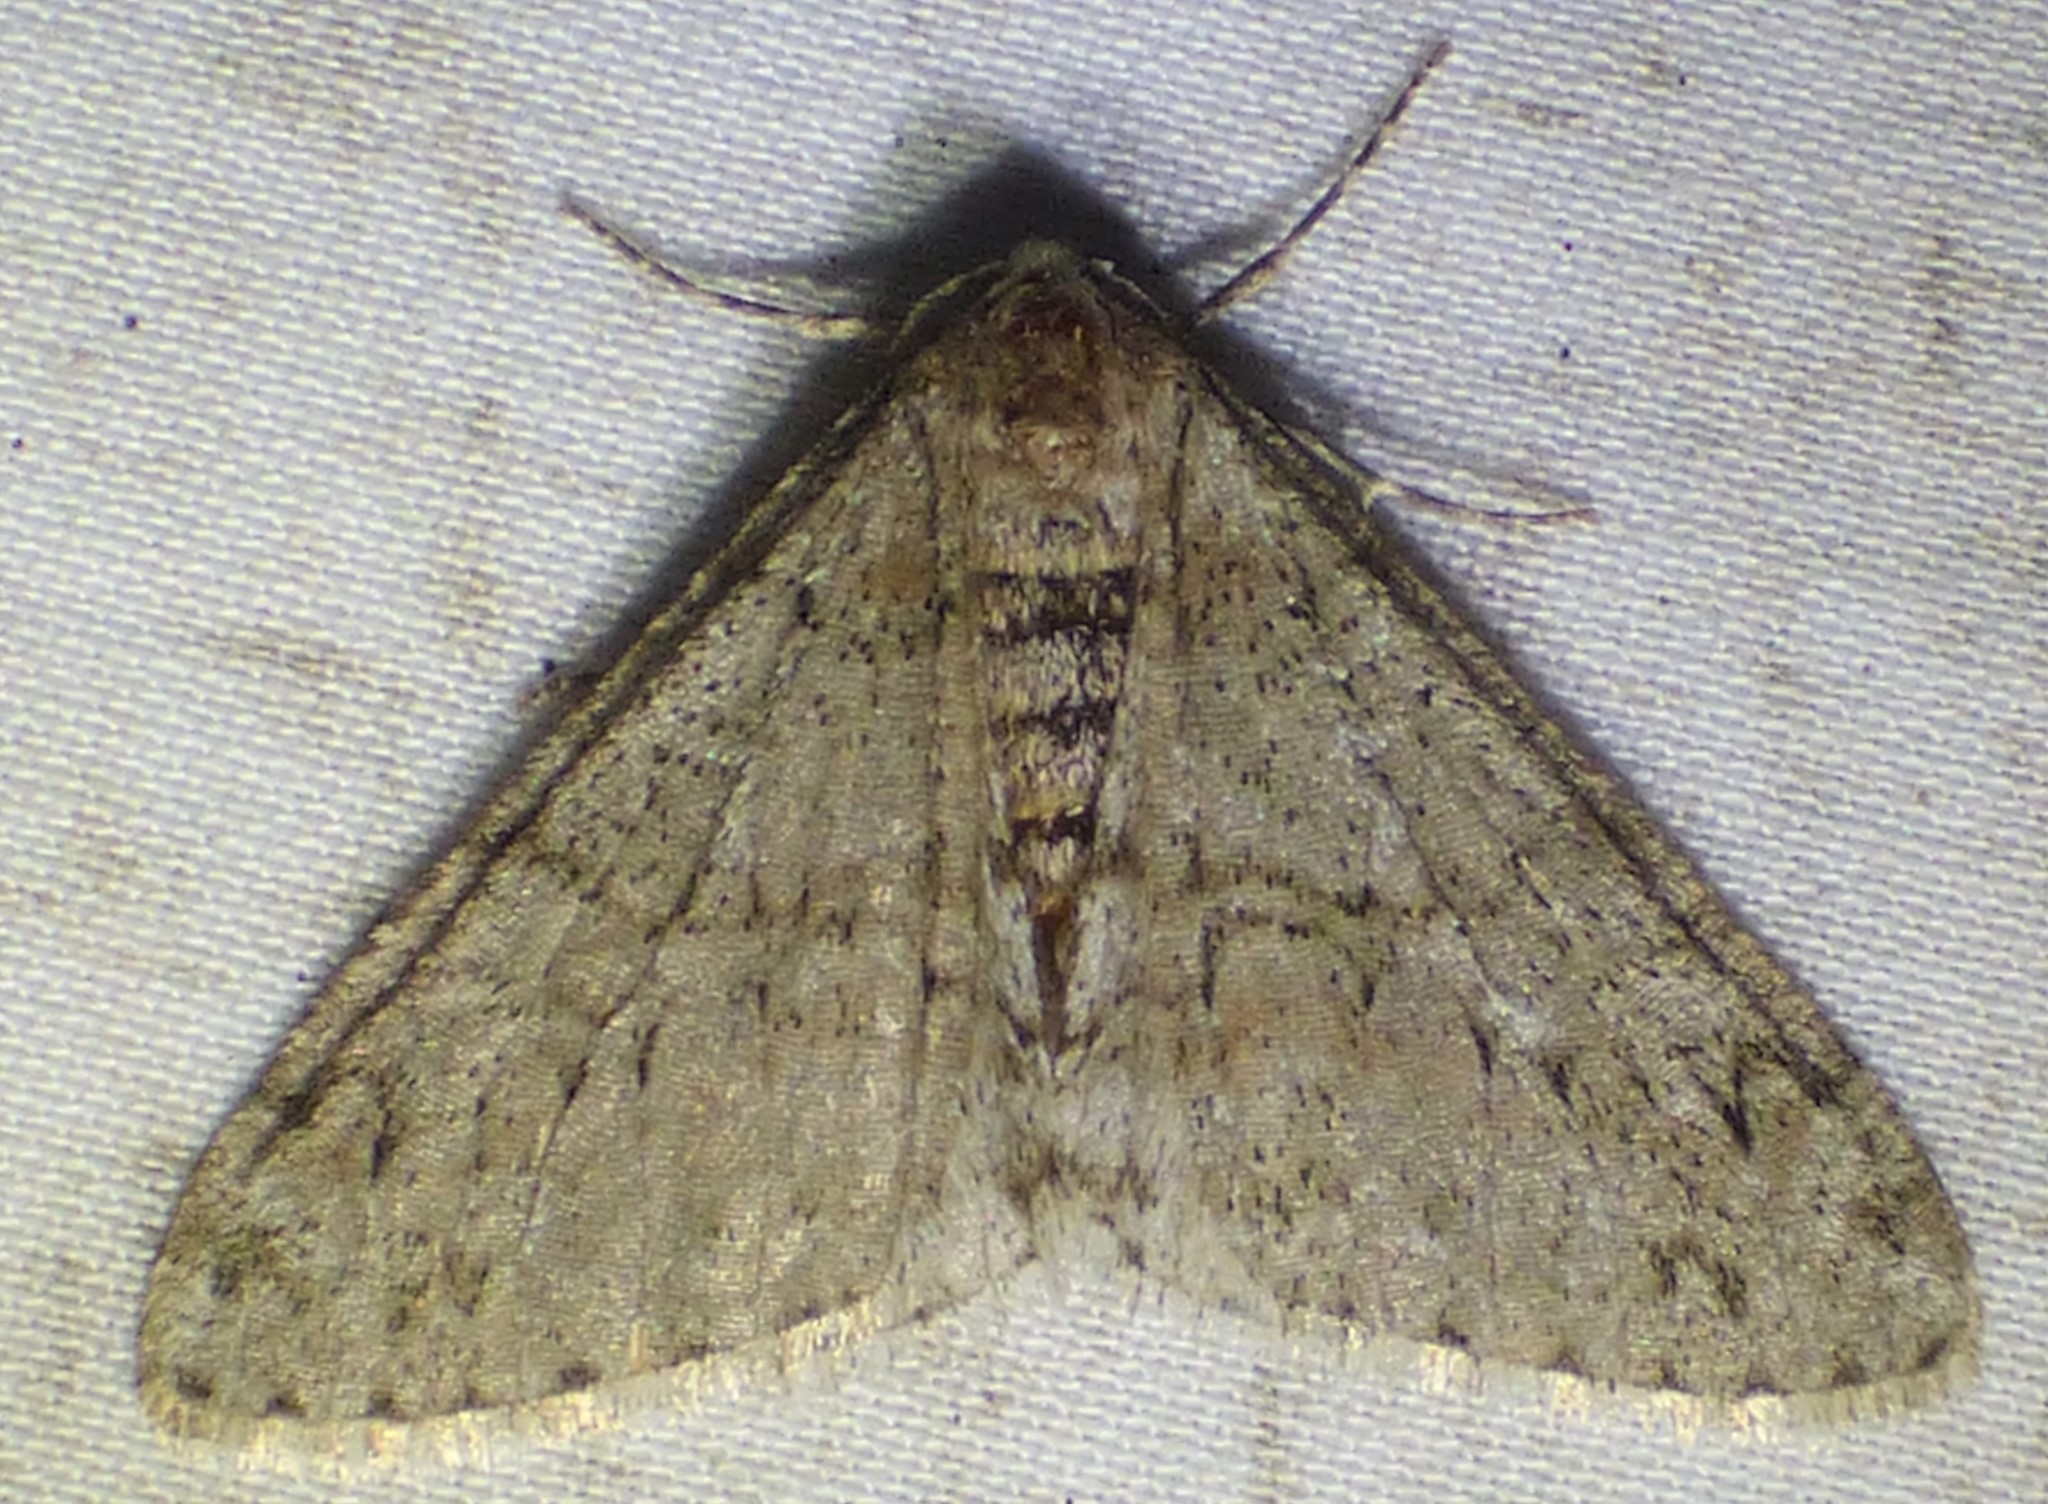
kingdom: Animalia
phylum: Arthropoda
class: Insecta
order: Lepidoptera
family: Geometridae
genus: Phigalia
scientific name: Phigalia strigataria
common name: Small phigalia
